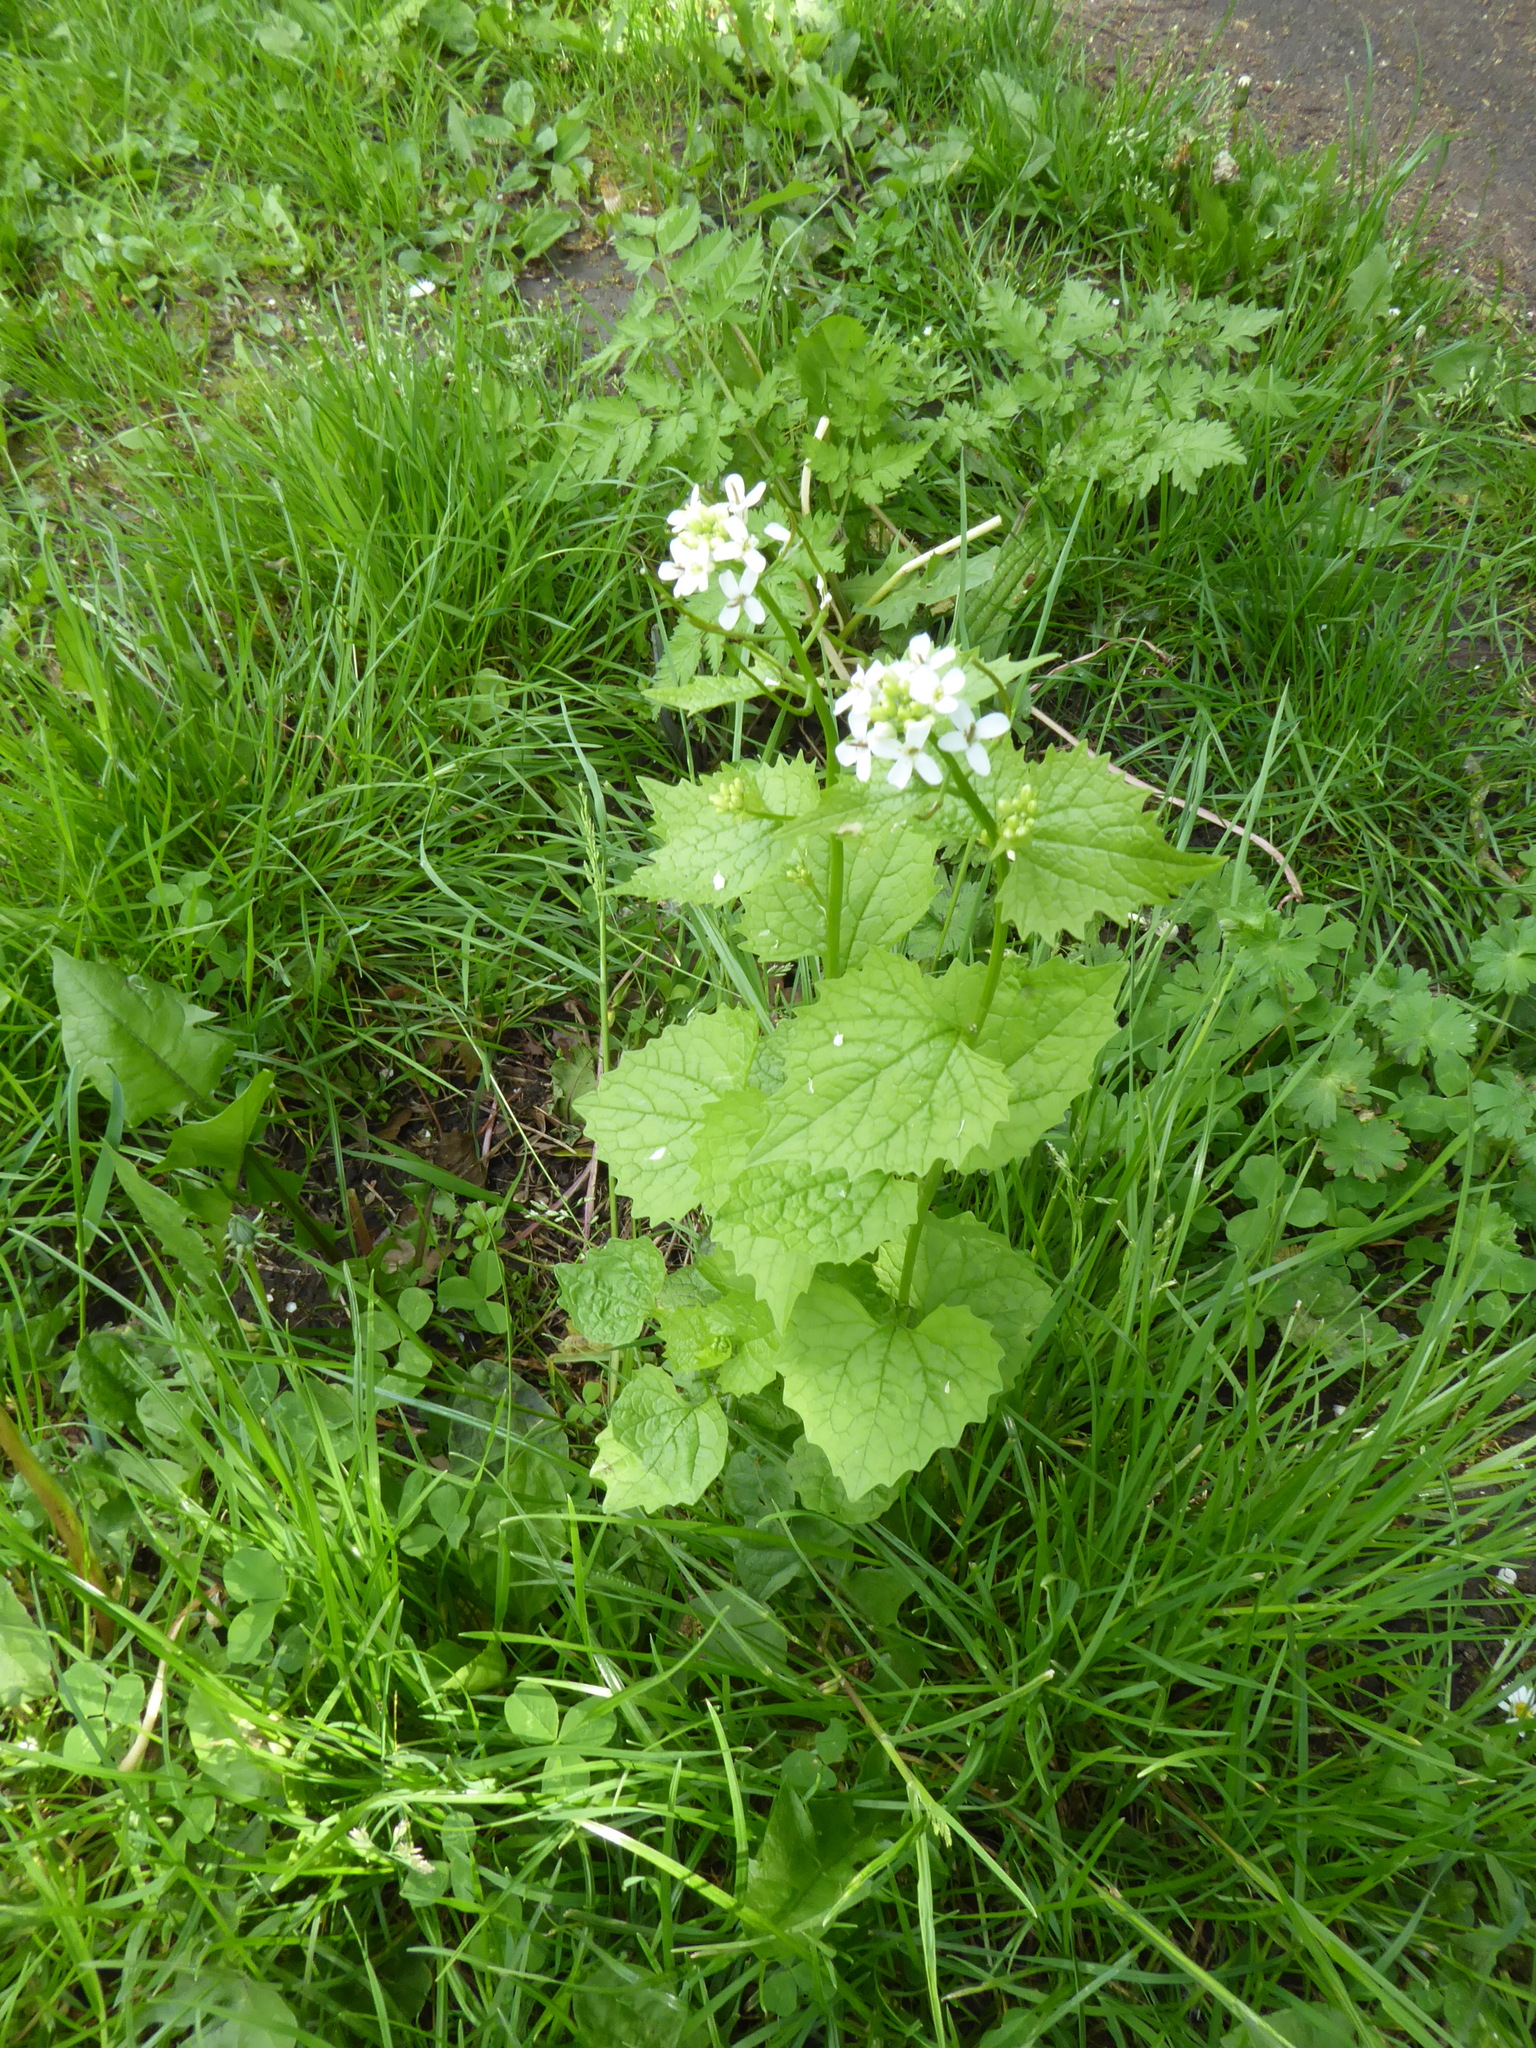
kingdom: Plantae
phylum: Tracheophyta
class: Magnoliopsida
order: Brassicales
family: Brassicaceae
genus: Alliaria
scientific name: Alliaria petiolata
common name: Garlic mustard
